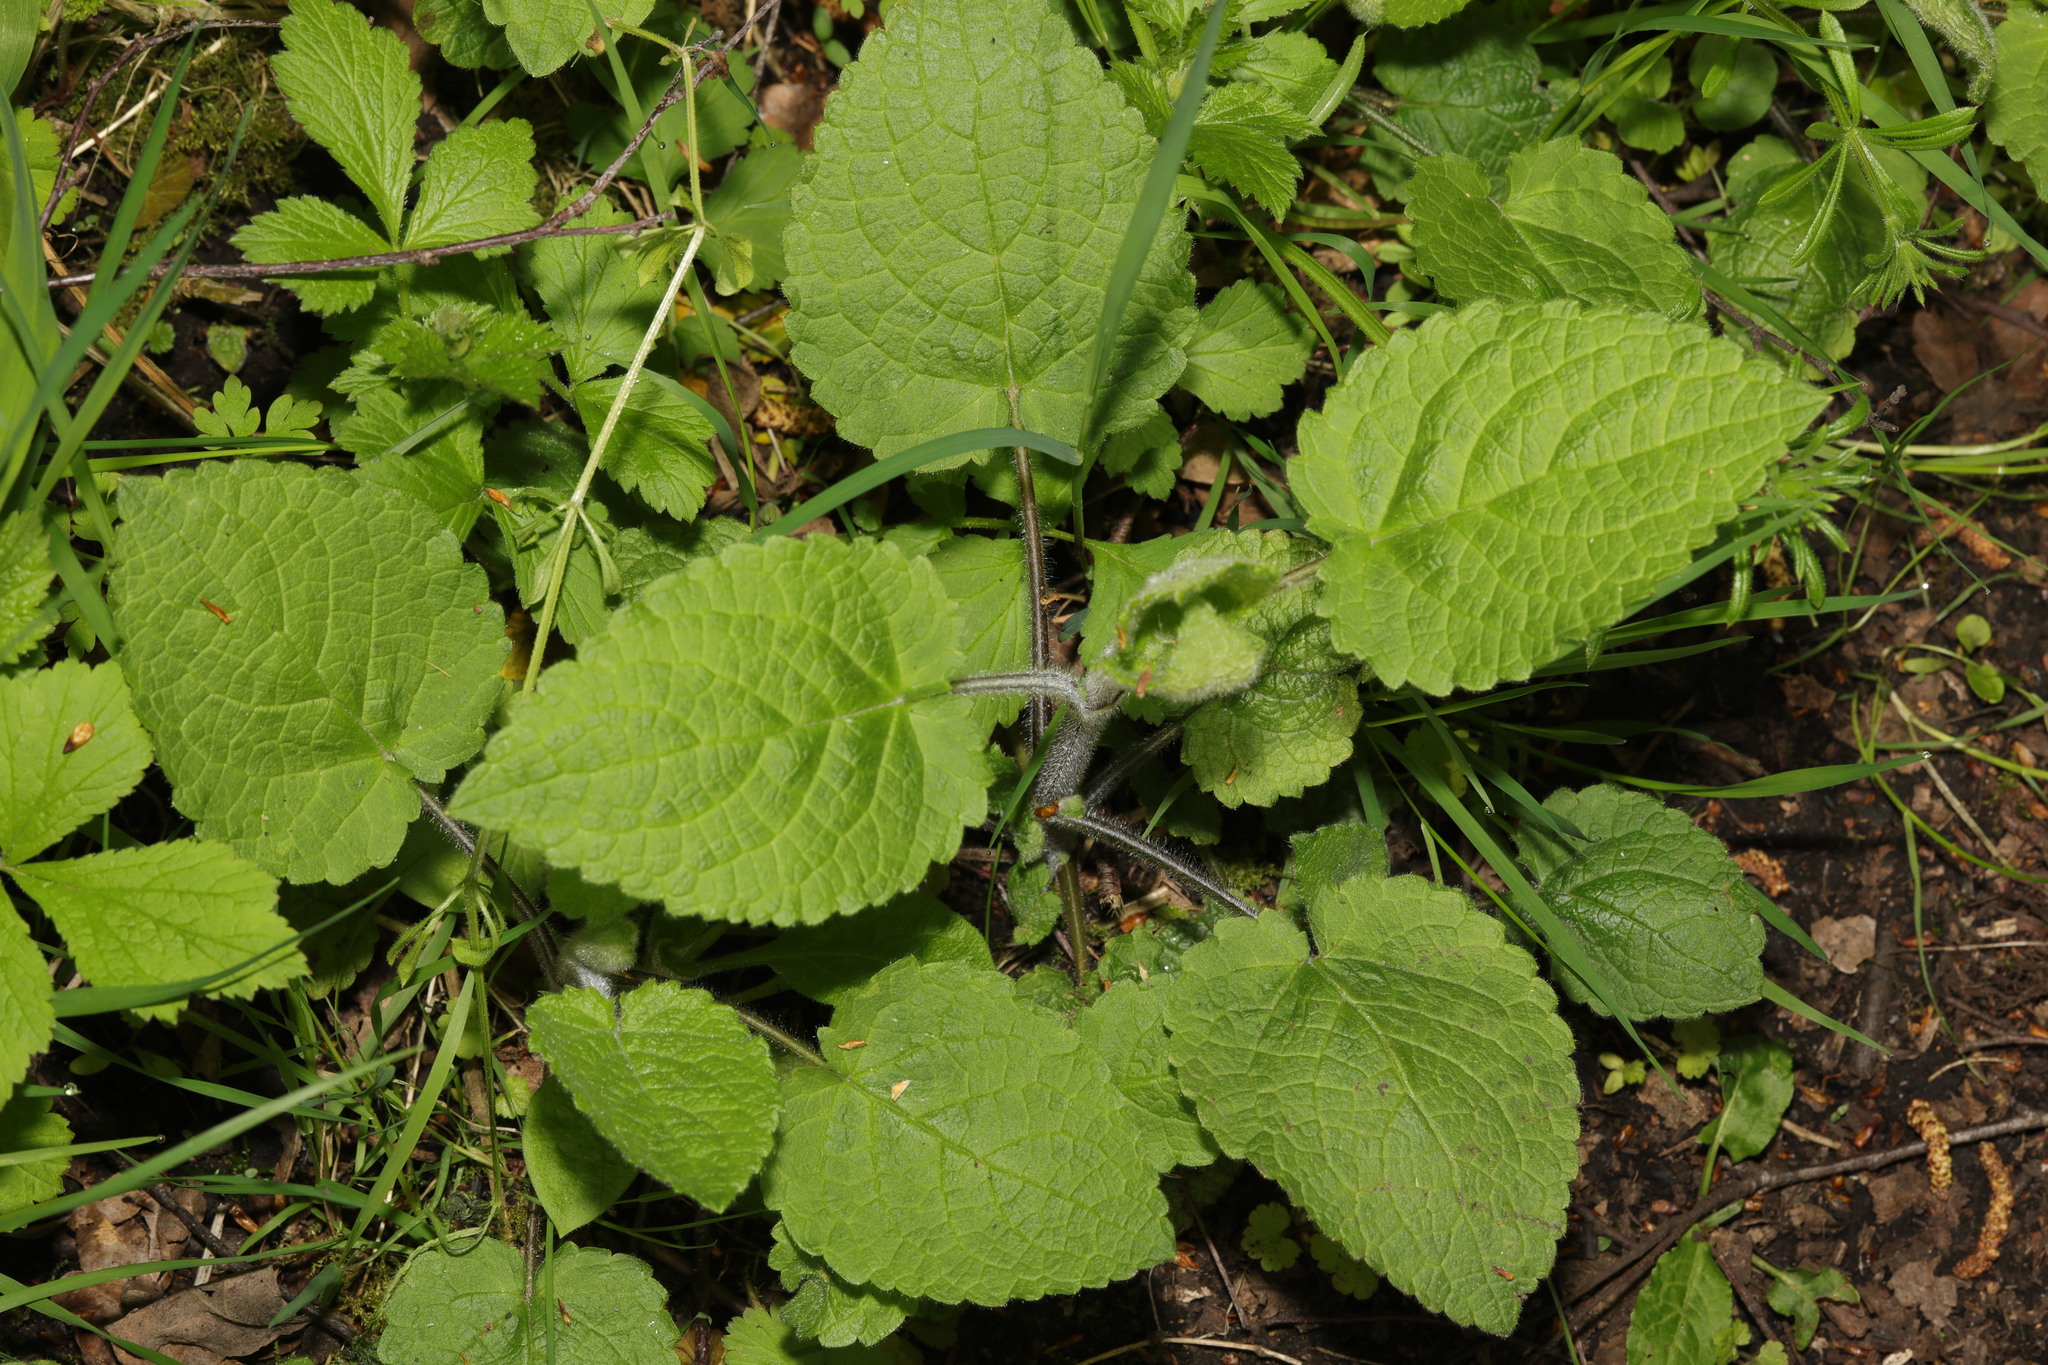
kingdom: Plantae
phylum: Tracheophyta
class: Magnoliopsida
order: Lamiales
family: Lamiaceae
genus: Stachys
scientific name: Stachys sylvatica
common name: Hedge woundwort
